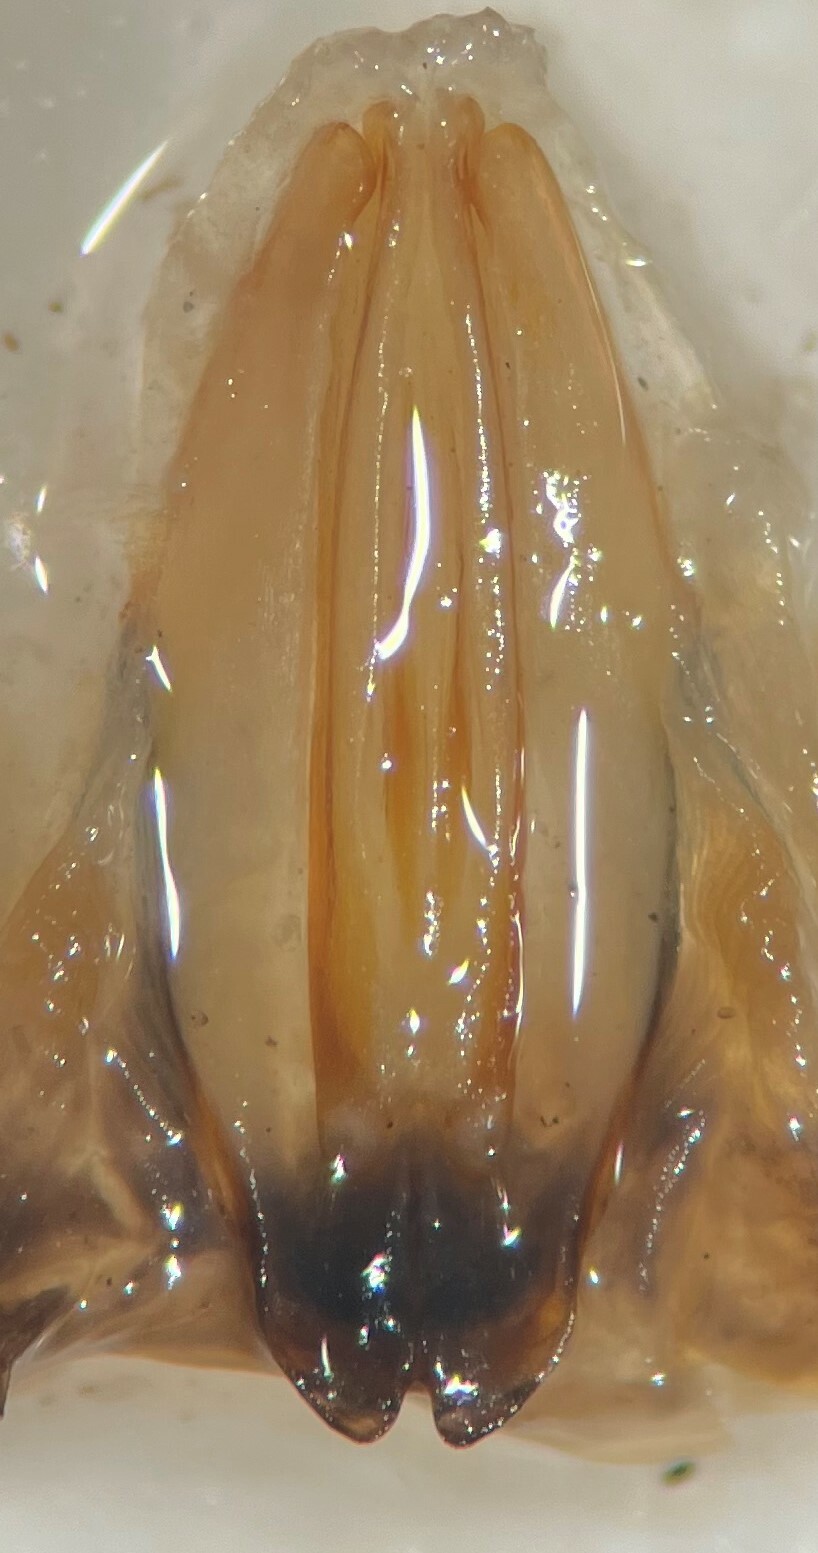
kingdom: Animalia
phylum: Arthropoda
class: Insecta
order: Coleoptera
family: Dytiscidae
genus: Eretes
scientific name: Eretes explicitus
